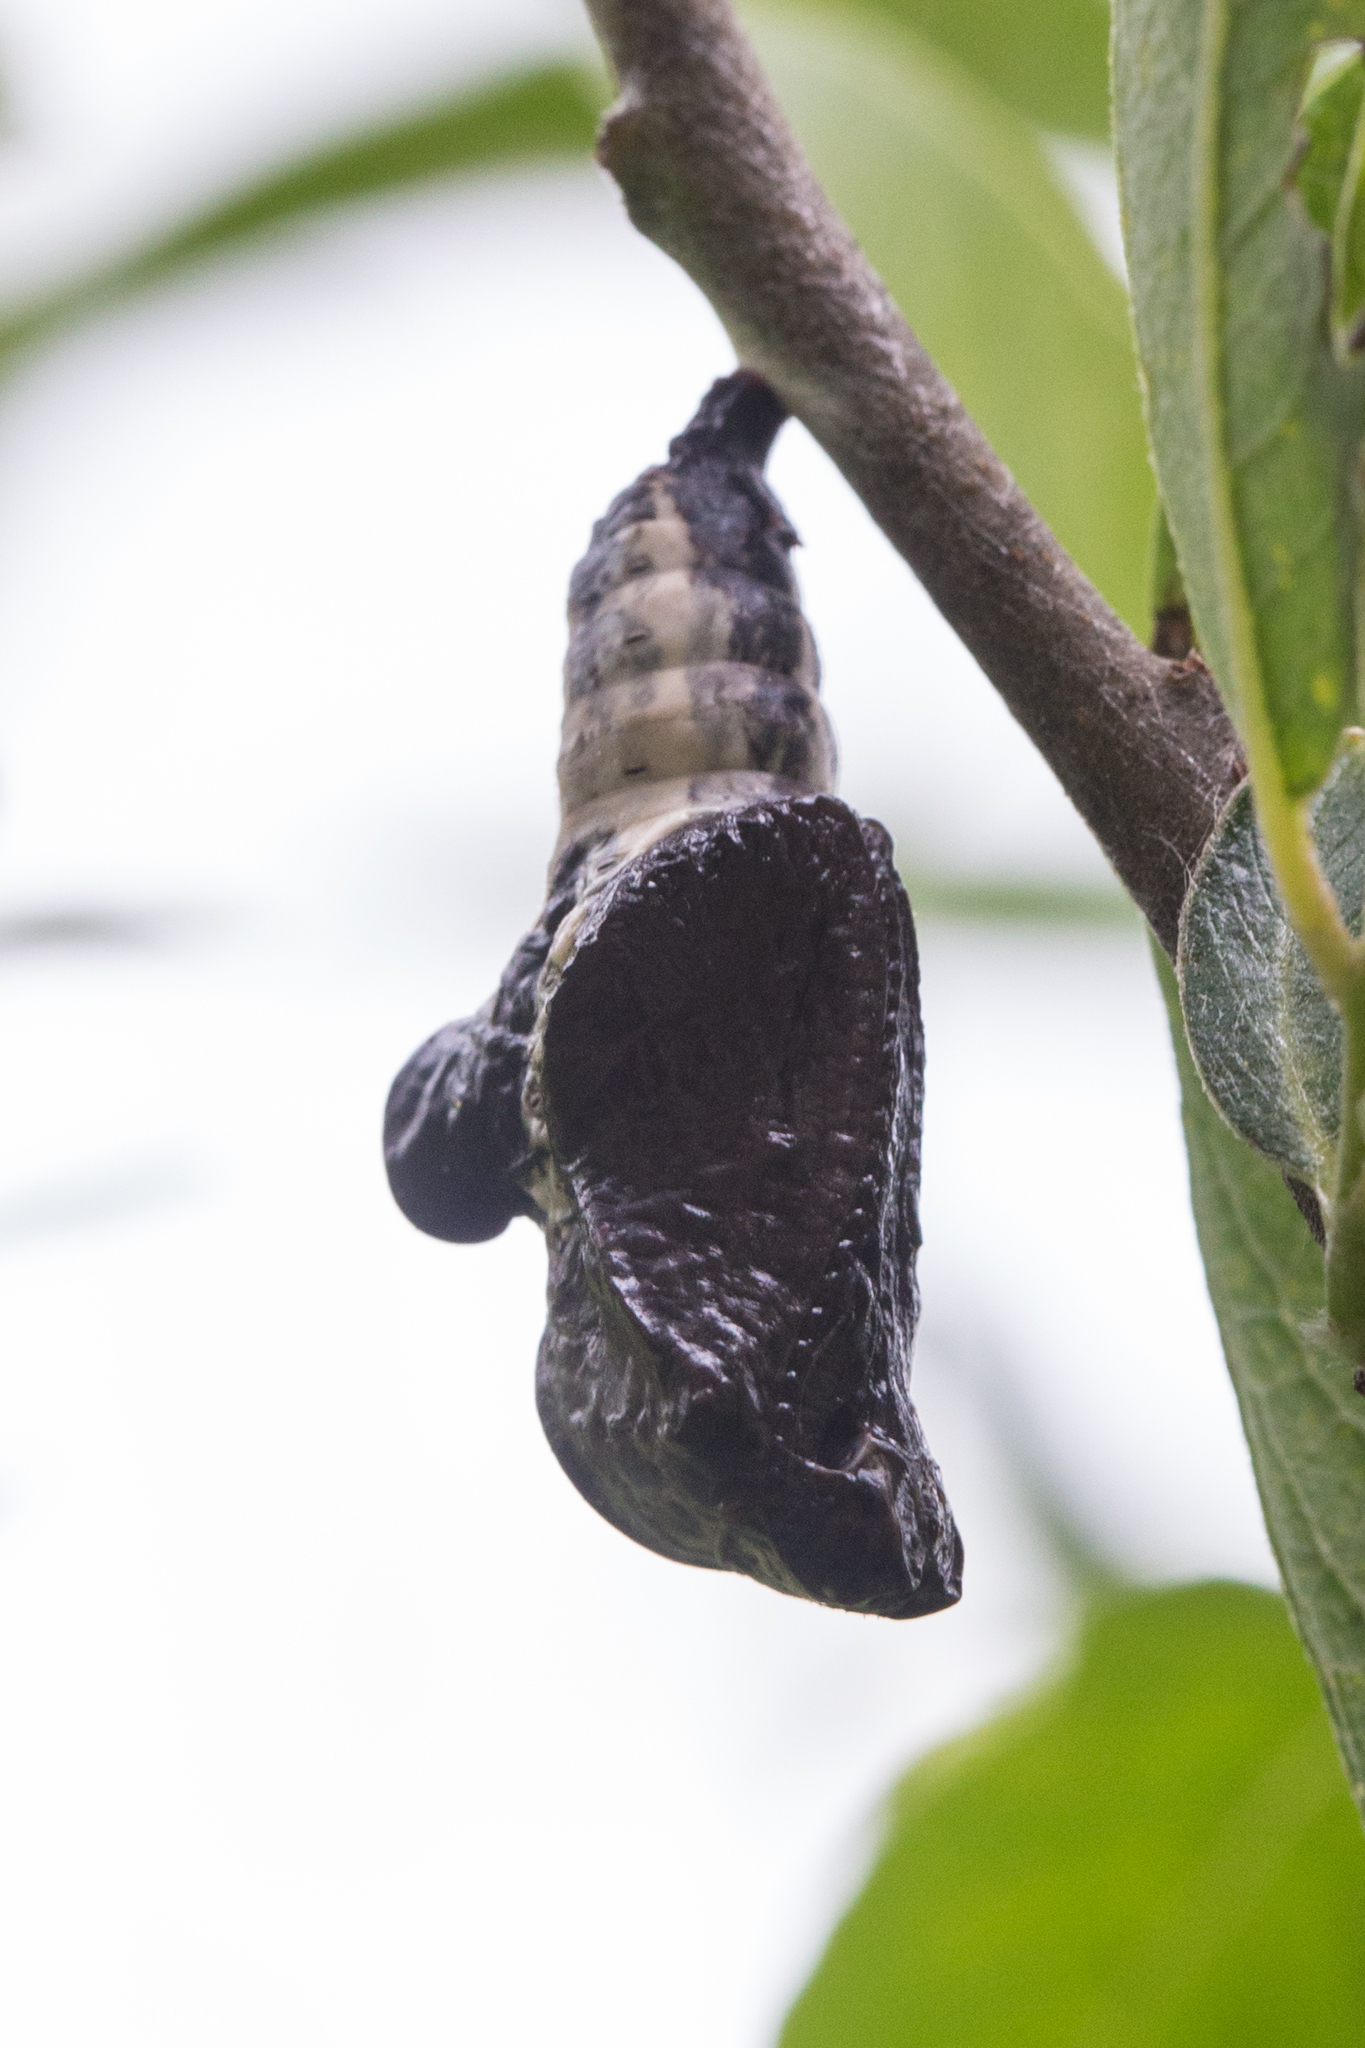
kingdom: Animalia
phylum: Arthropoda
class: Insecta
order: Lepidoptera
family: Nymphalidae
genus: Limenitis
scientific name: Limenitis lorquini
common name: Lorquin's admiral
